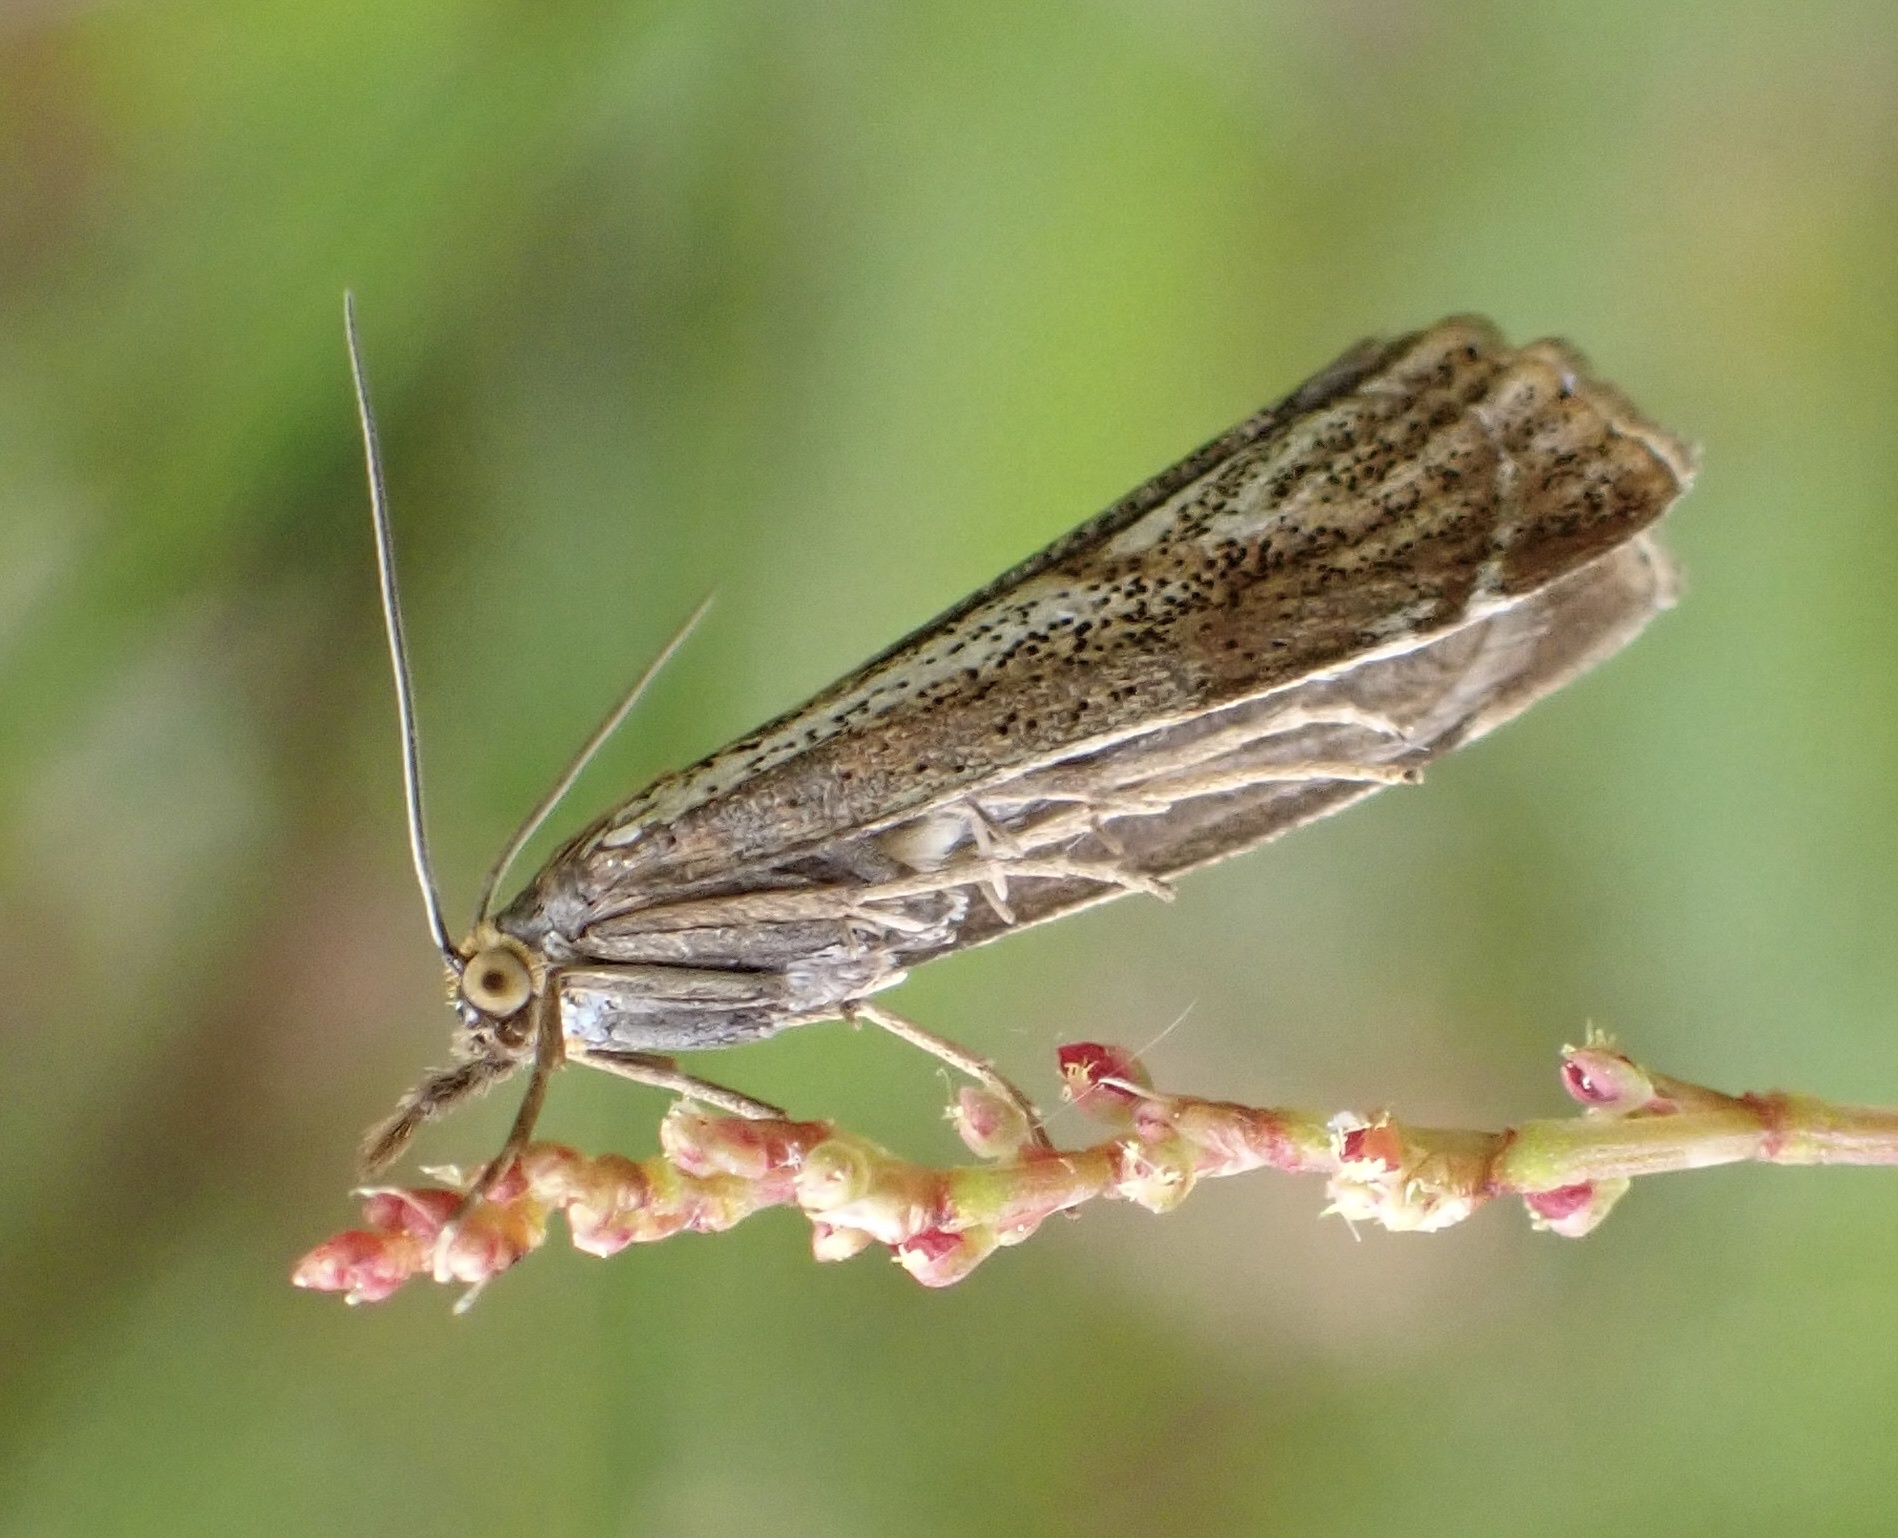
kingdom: Animalia
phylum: Arthropoda
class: Insecta
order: Lepidoptera
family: Crambidae
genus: Thisanotia
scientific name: Thisanotia chrysonuchella
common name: Powdered grass-veneer
